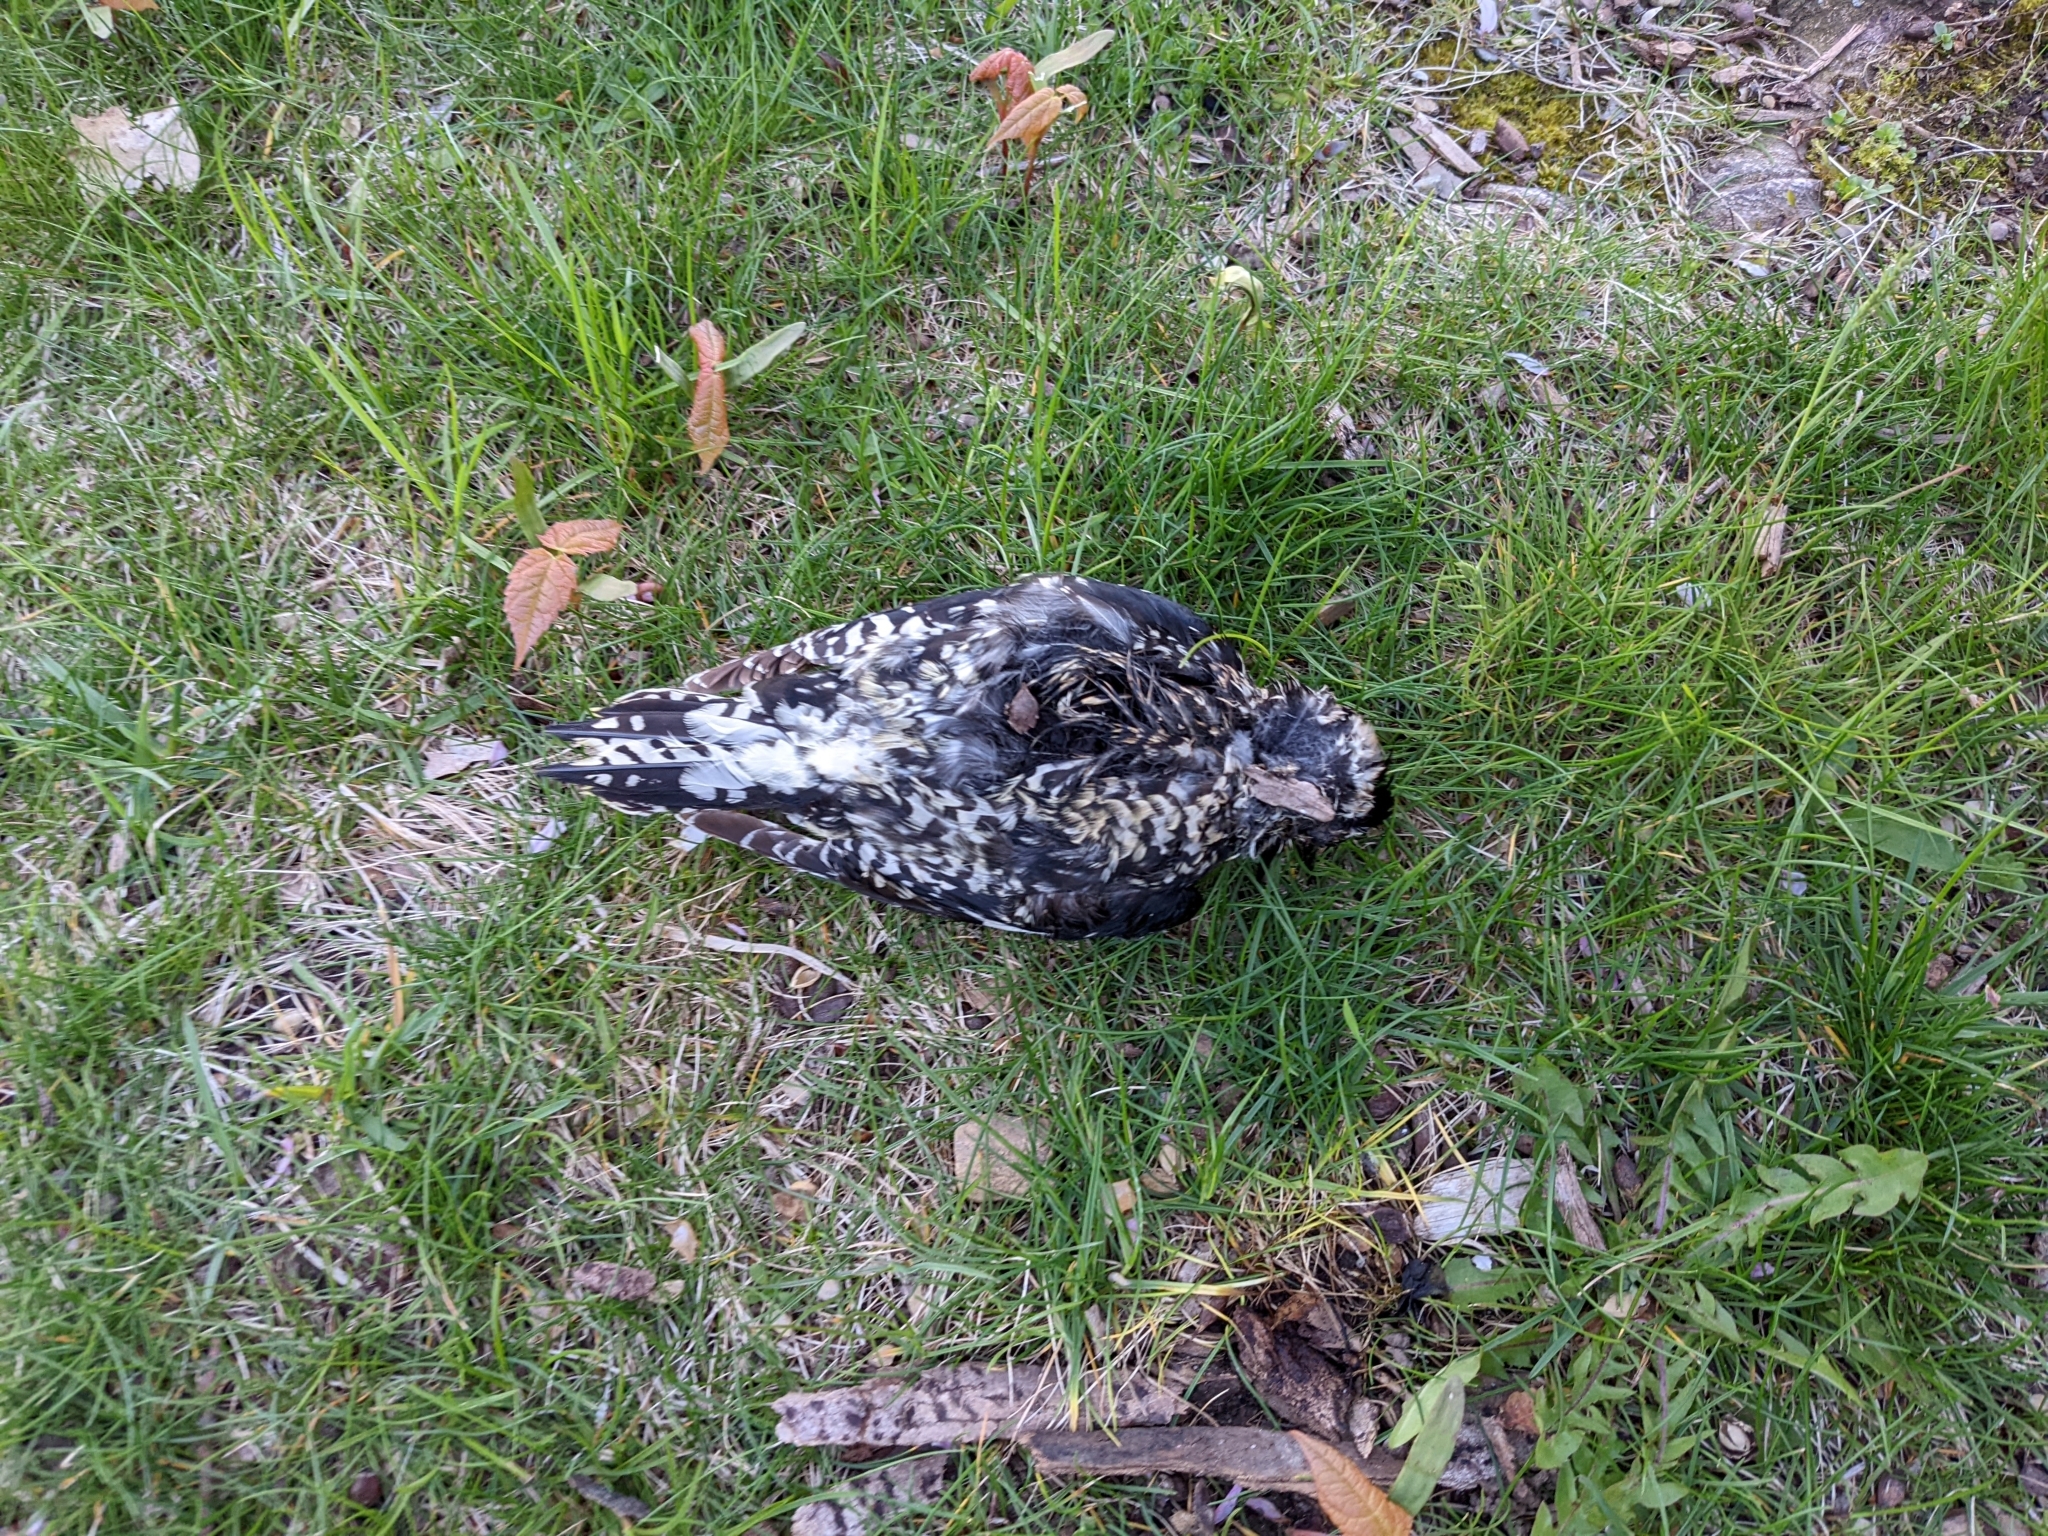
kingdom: Animalia
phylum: Chordata
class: Aves
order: Piciformes
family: Picidae
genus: Sphyrapicus
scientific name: Sphyrapicus varius
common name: Yellow-bellied sapsucker
